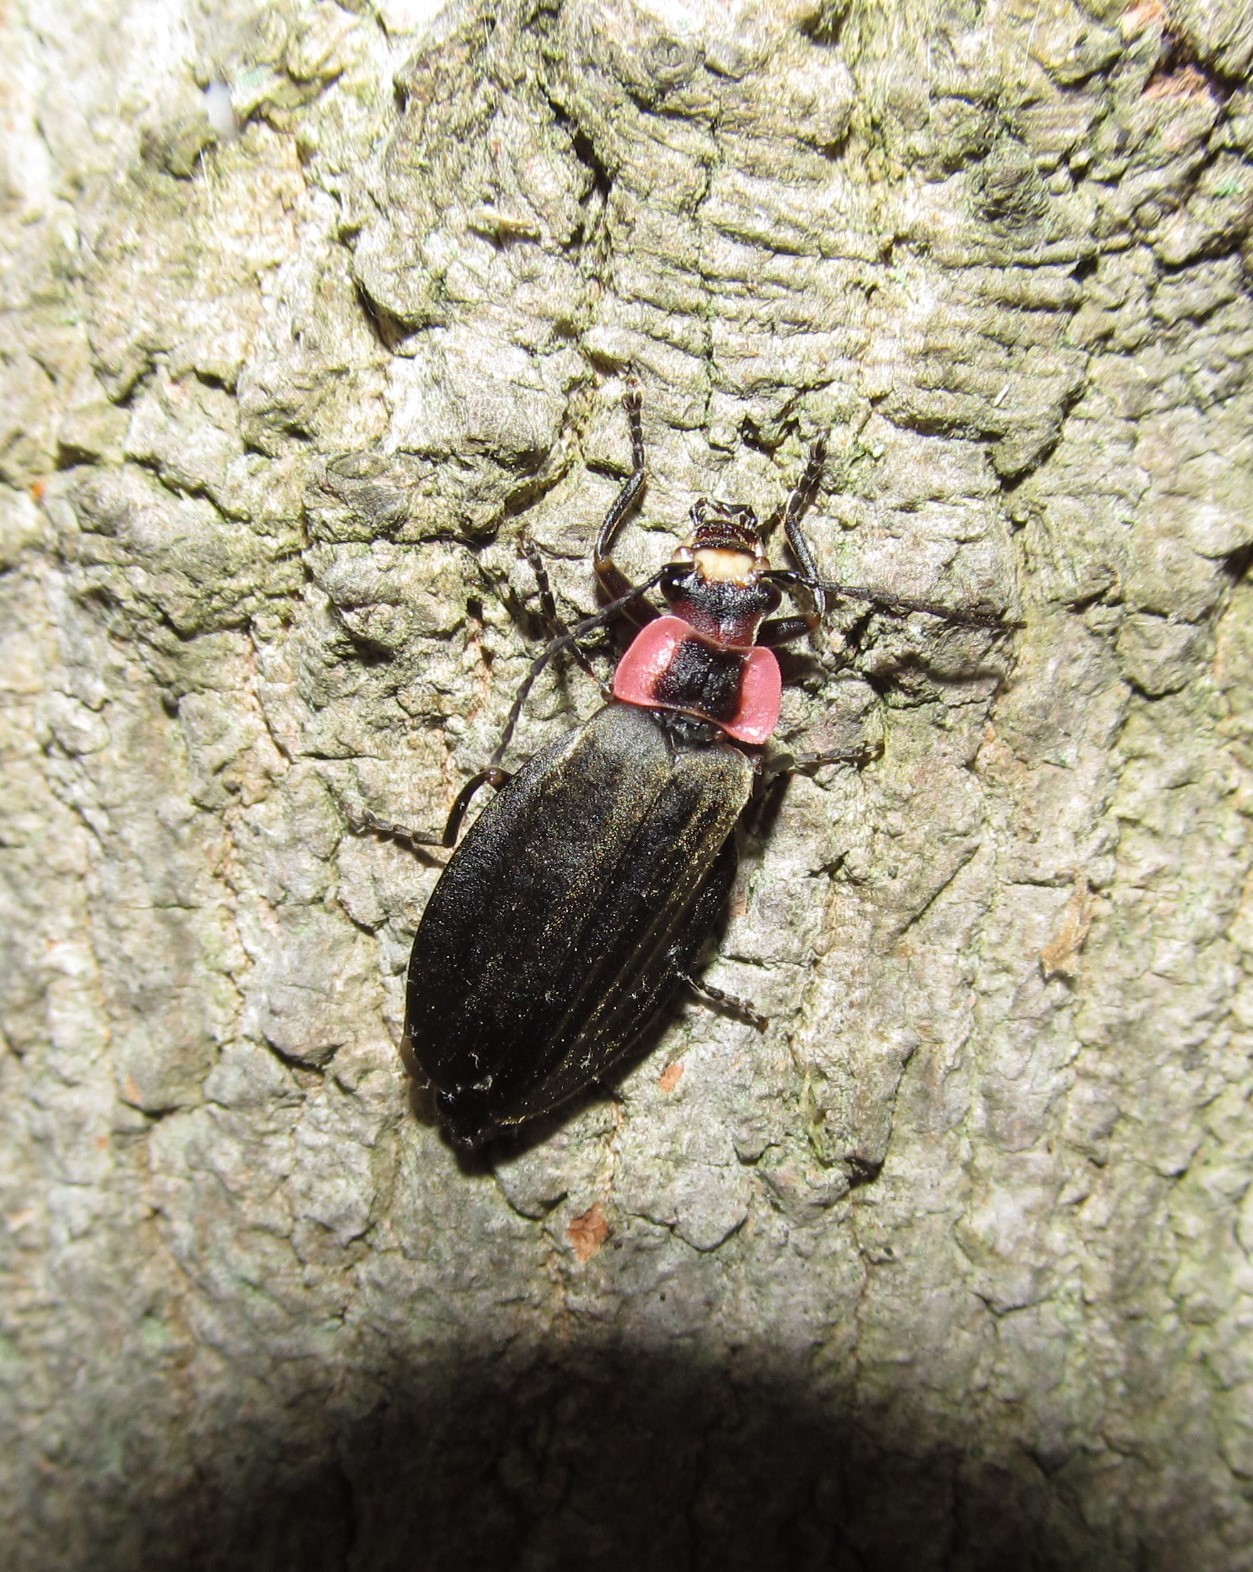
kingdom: Animalia
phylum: Arthropoda
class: Insecta
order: Coleoptera
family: Cantharidae
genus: Podabrus
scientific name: Podabrus tricostatus
